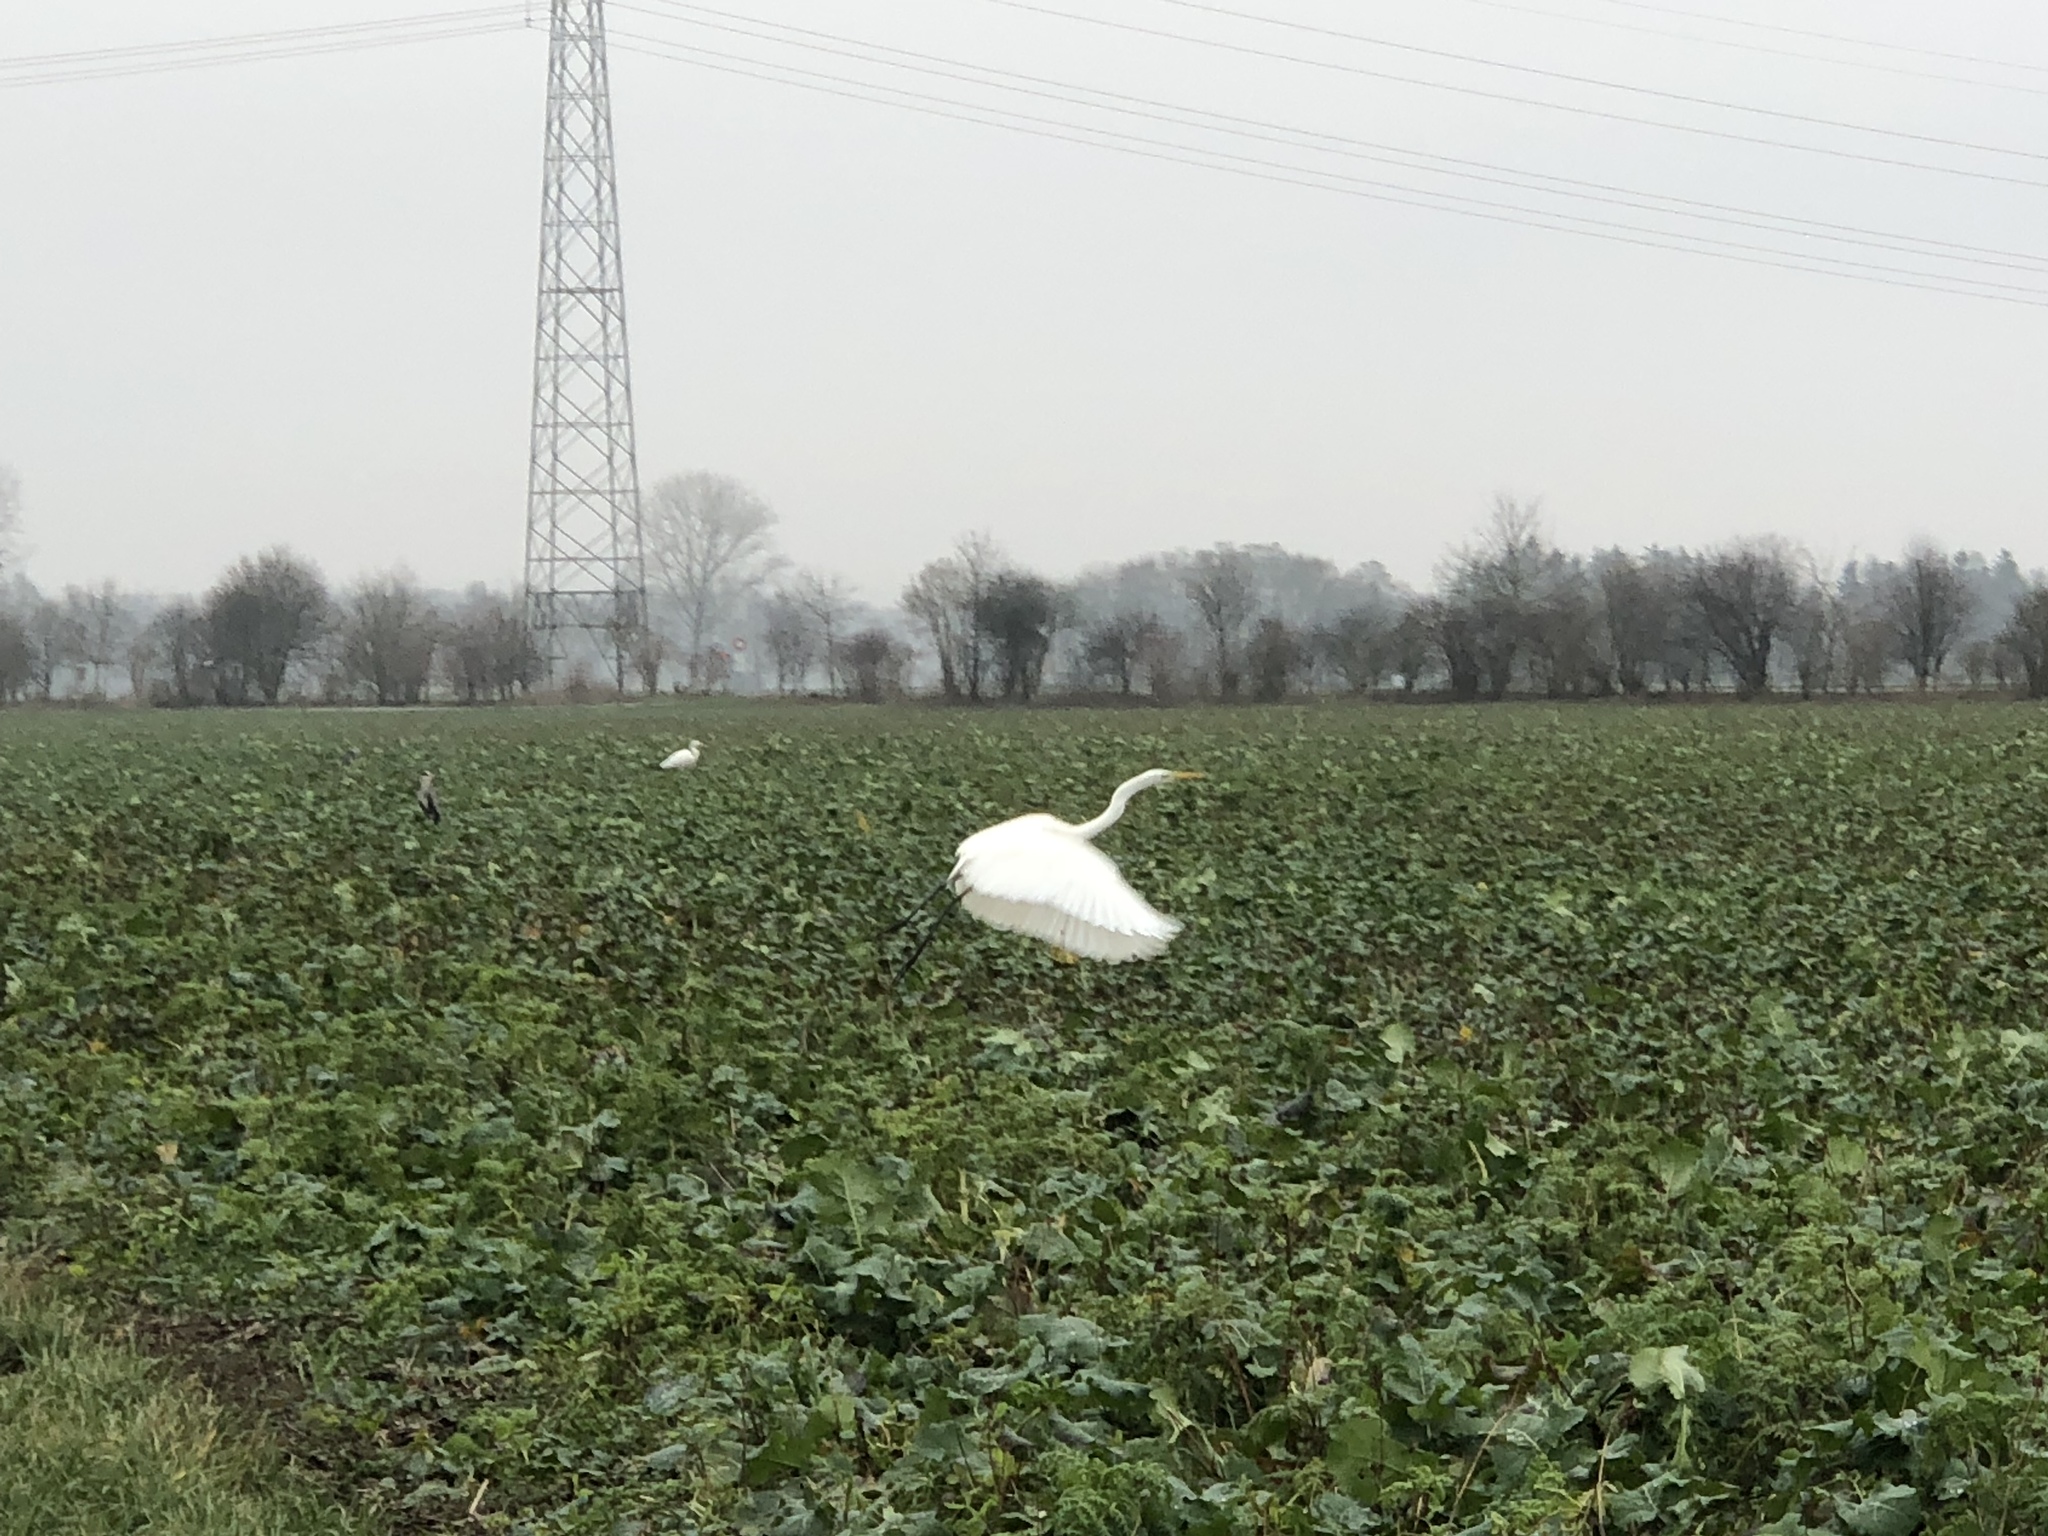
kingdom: Animalia
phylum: Chordata
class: Aves
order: Pelecaniformes
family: Ardeidae
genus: Ardea
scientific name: Ardea alba
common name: Great egret
